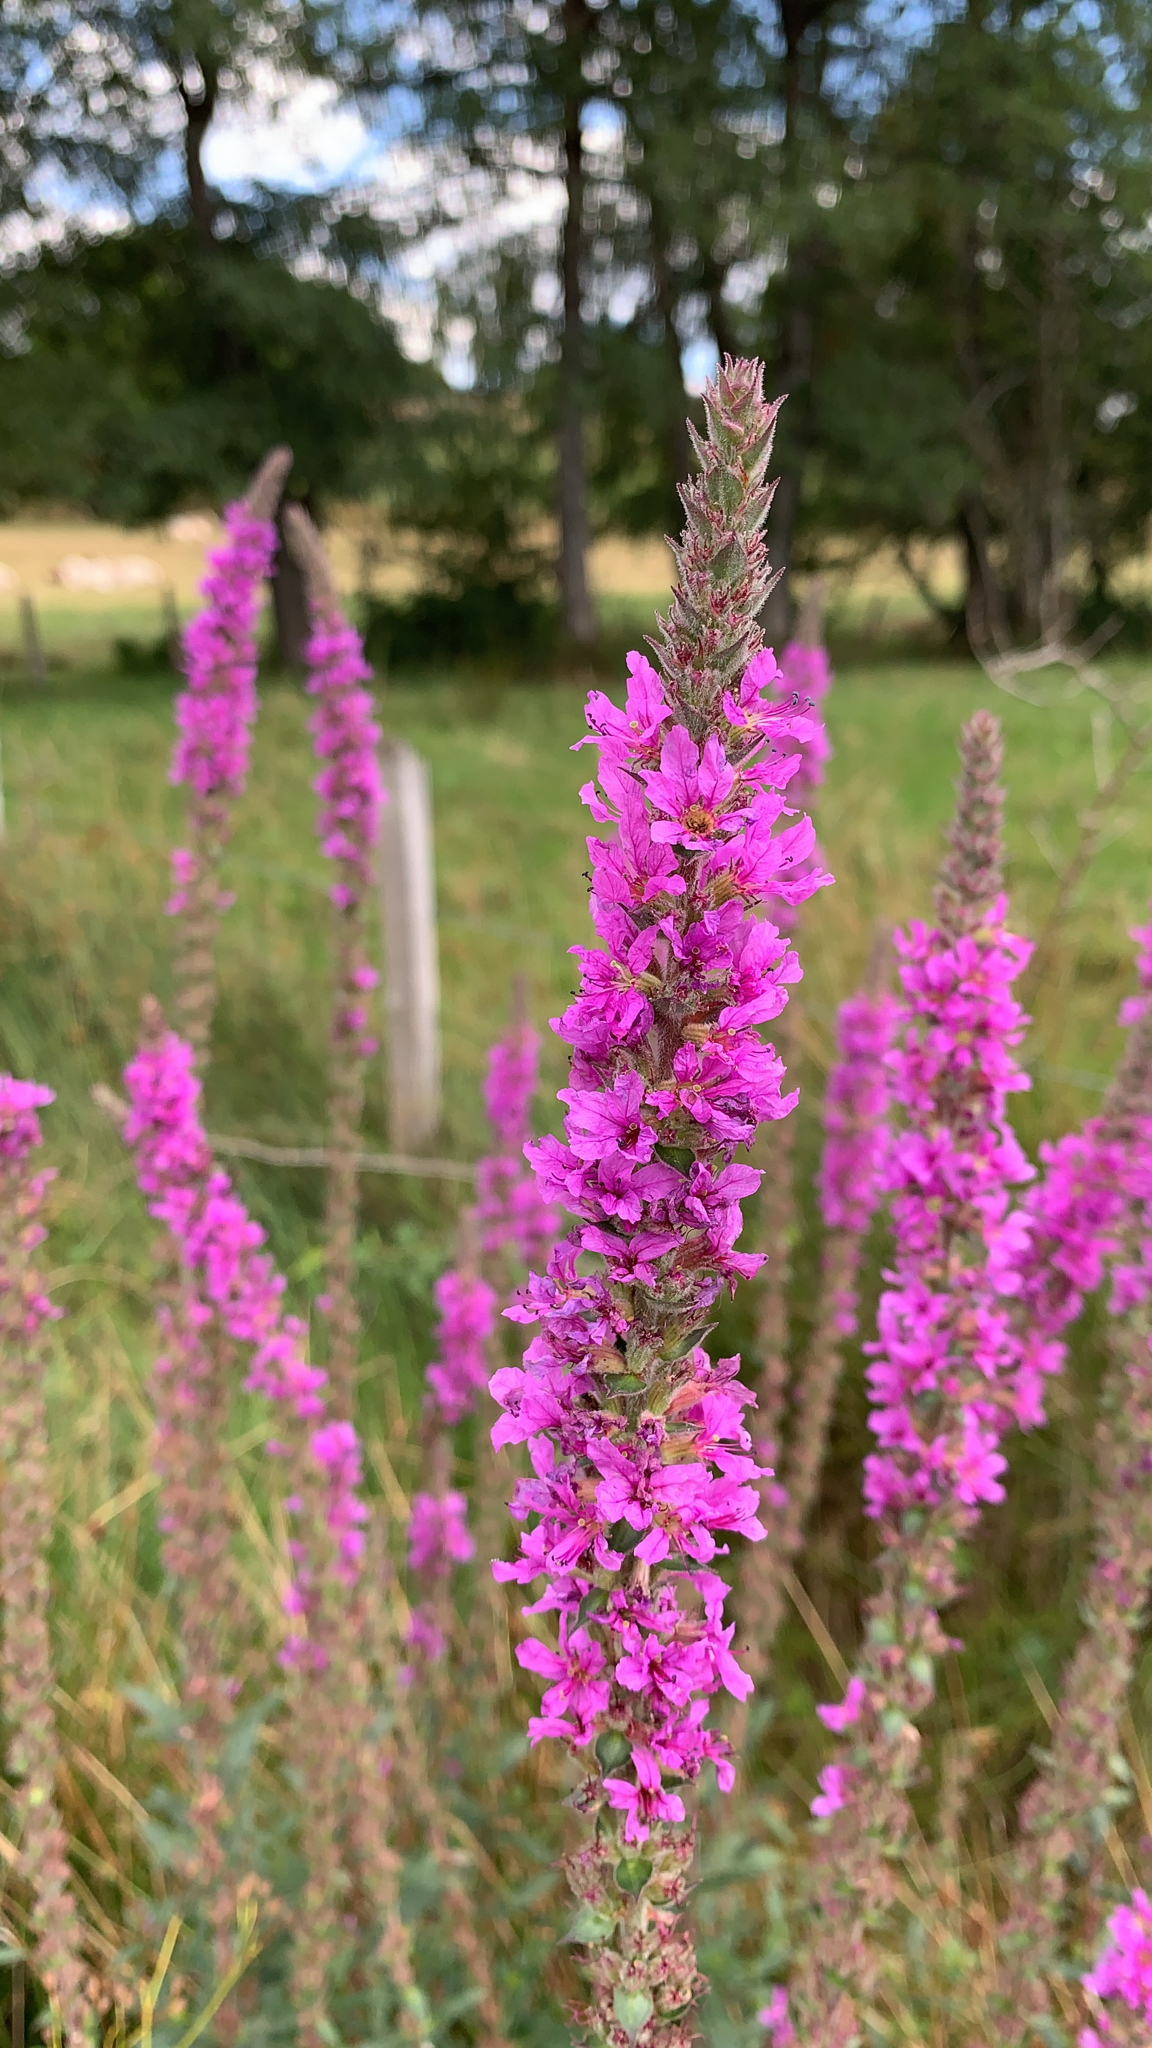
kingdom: Plantae
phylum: Tracheophyta
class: Magnoliopsida
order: Myrtales
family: Lythraceae
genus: Lythrum
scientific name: Lythrum salicaria
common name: Purple loosestrife
